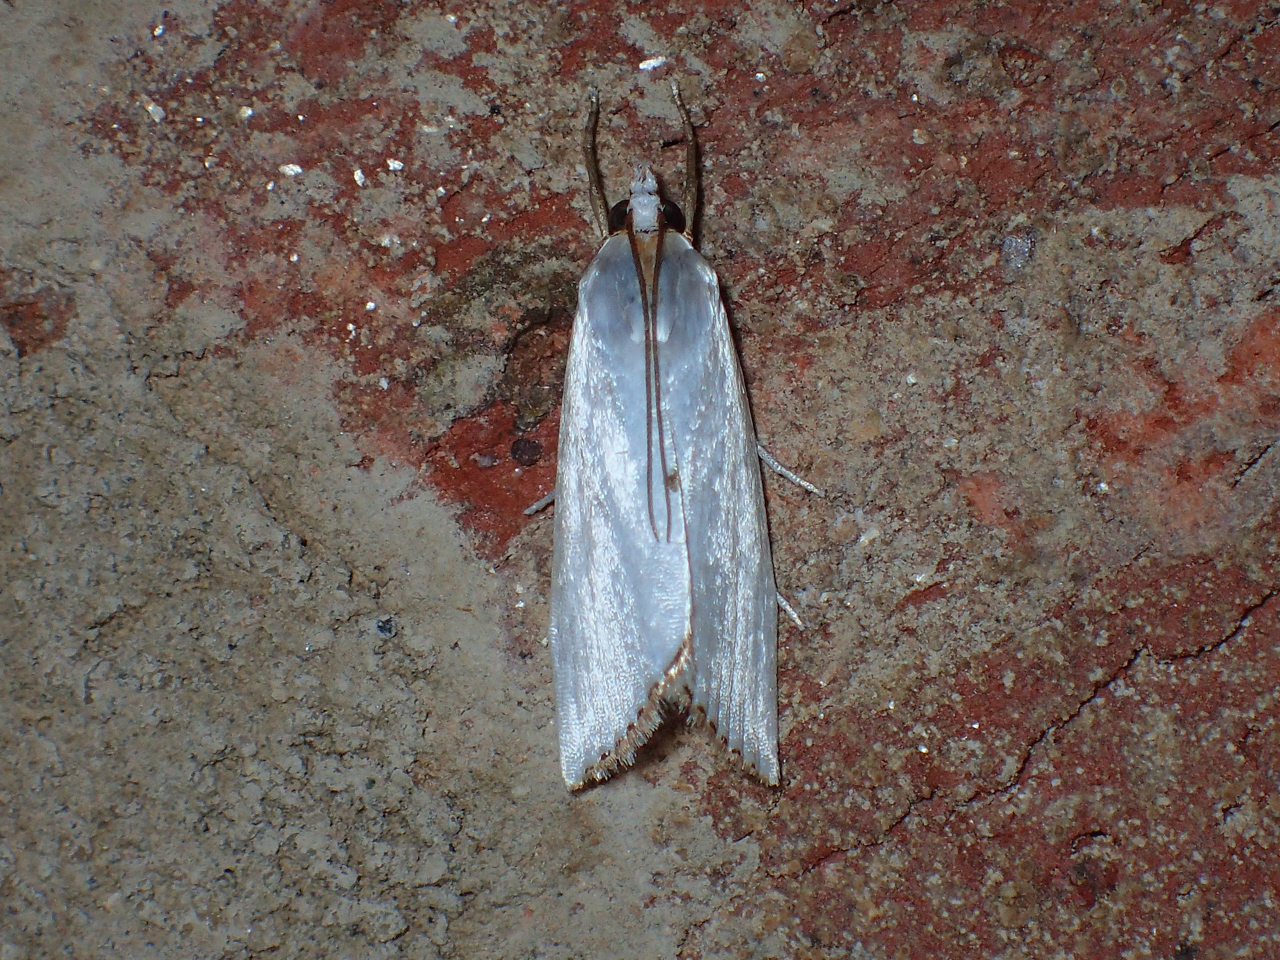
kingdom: Animalia
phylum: Arthropoda
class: Insecta
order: Lepidoptera
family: Crambidae
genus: Argyria
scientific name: Argyria nivalis
